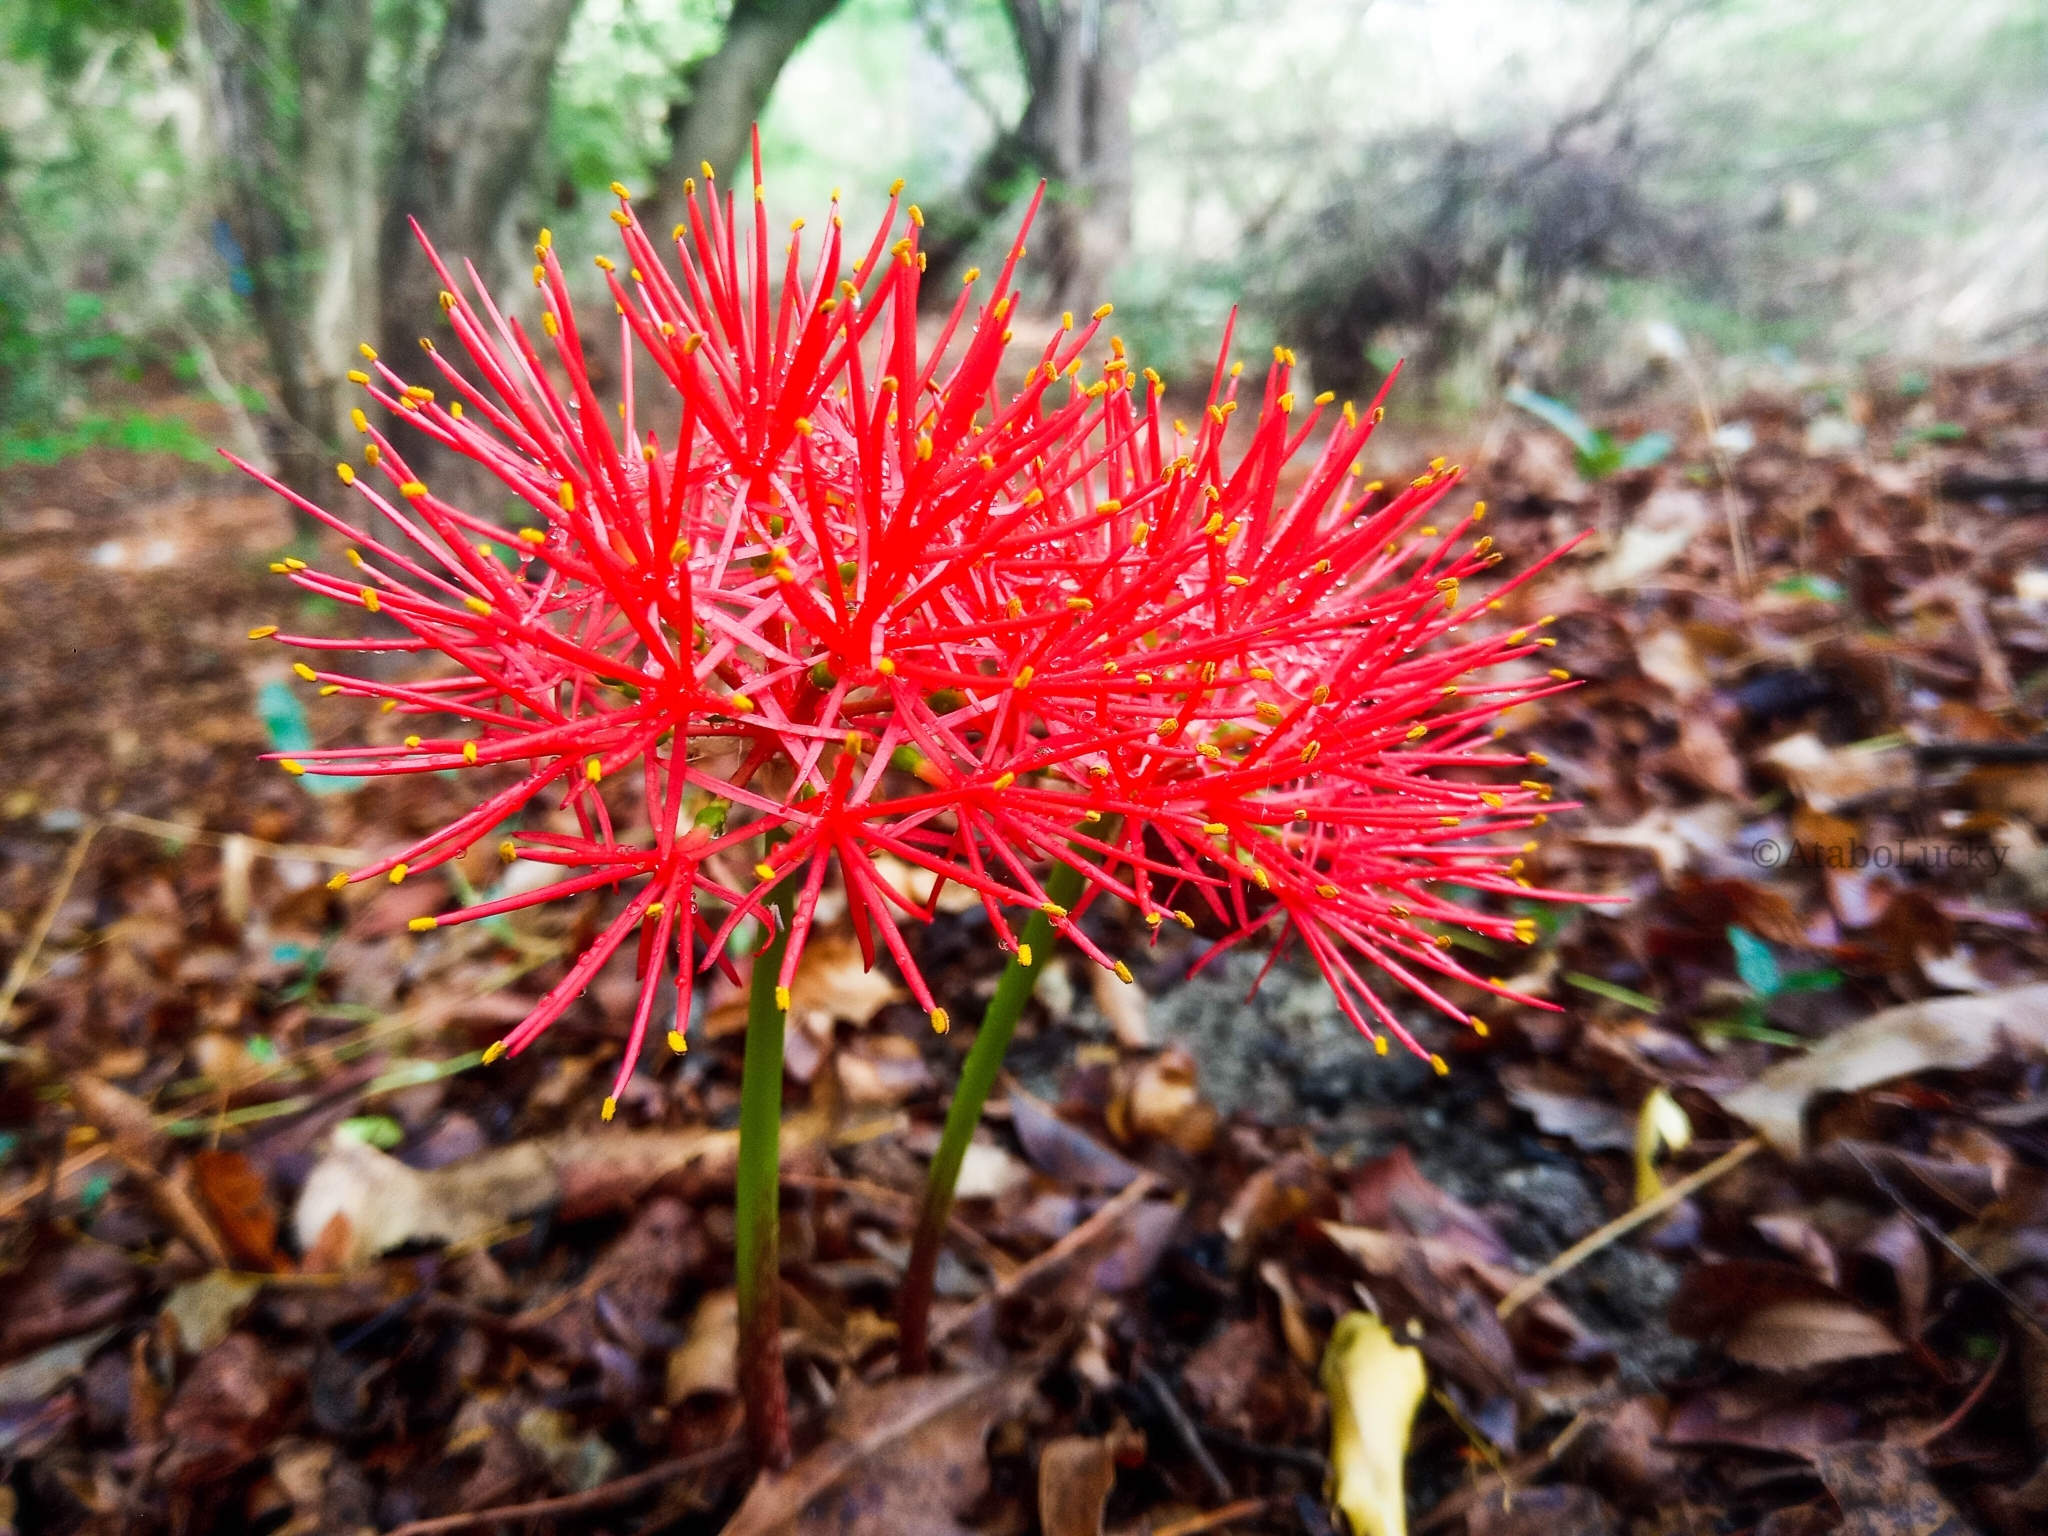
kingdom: Plantae
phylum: Tracheophyta
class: Liliopsida
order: Asparagales
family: Amaryllidaceae
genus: Scadoxus
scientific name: Scadoxus multiflorus
